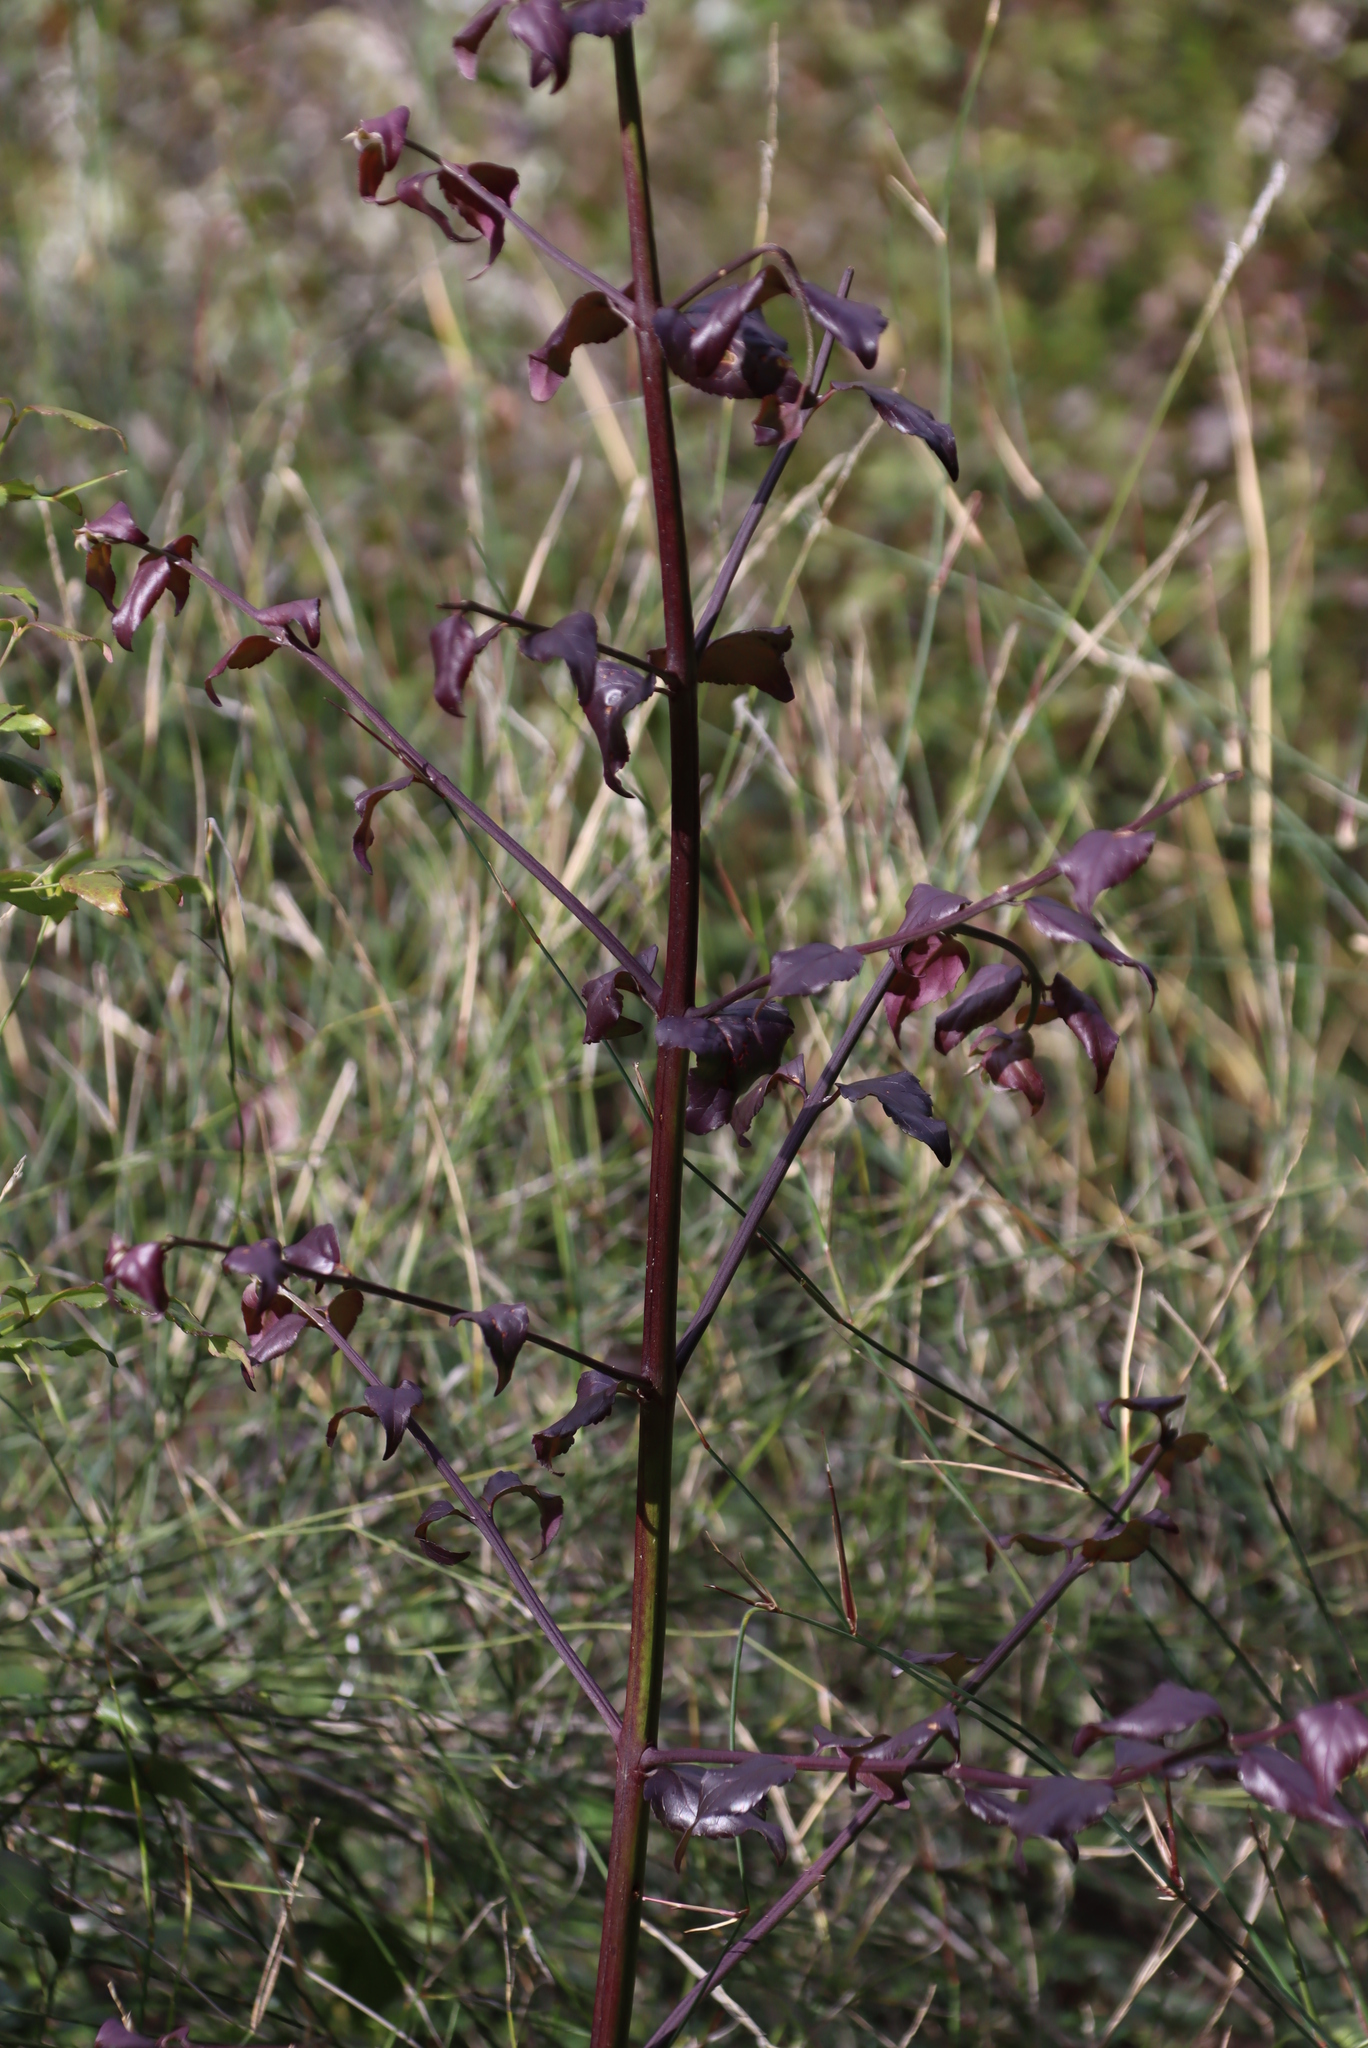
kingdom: Plantae
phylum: Tracheophyta
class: Magnoliopsida
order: Lamiales
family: Stilbaceae
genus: Halleria
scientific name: Halleria lucida
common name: Tree fuschia
